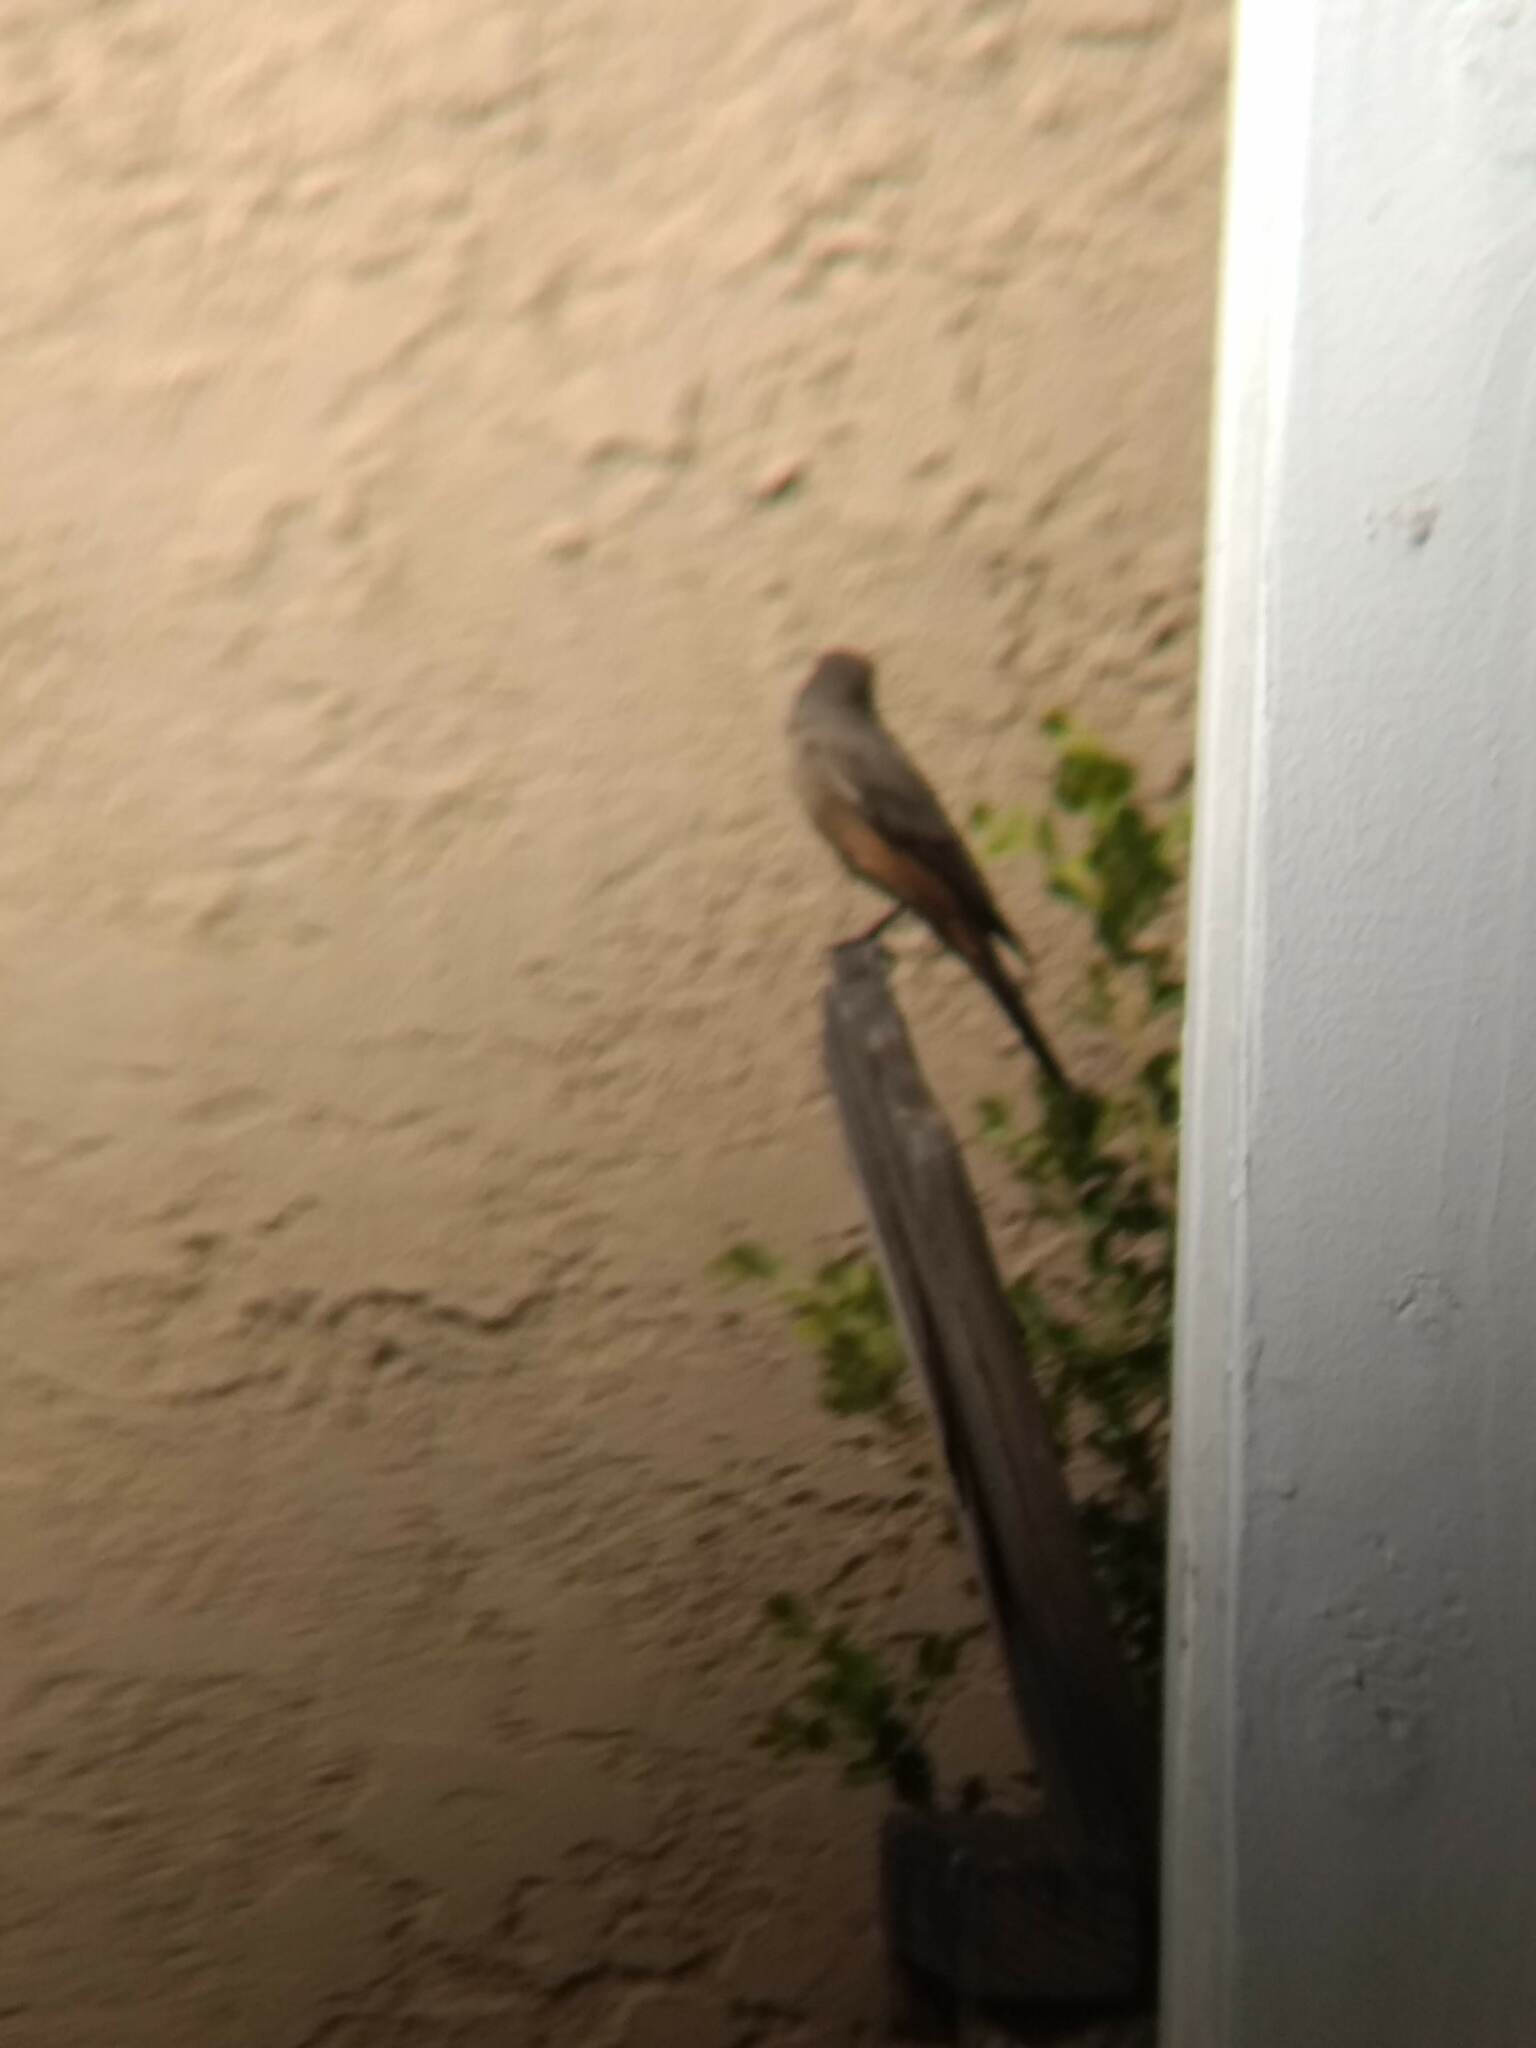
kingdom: Animalia
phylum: Chordata
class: Aves
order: Passeriformes
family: Tyrannidae
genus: Sayornis
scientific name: Sayornis saya
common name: Say's phoebe
